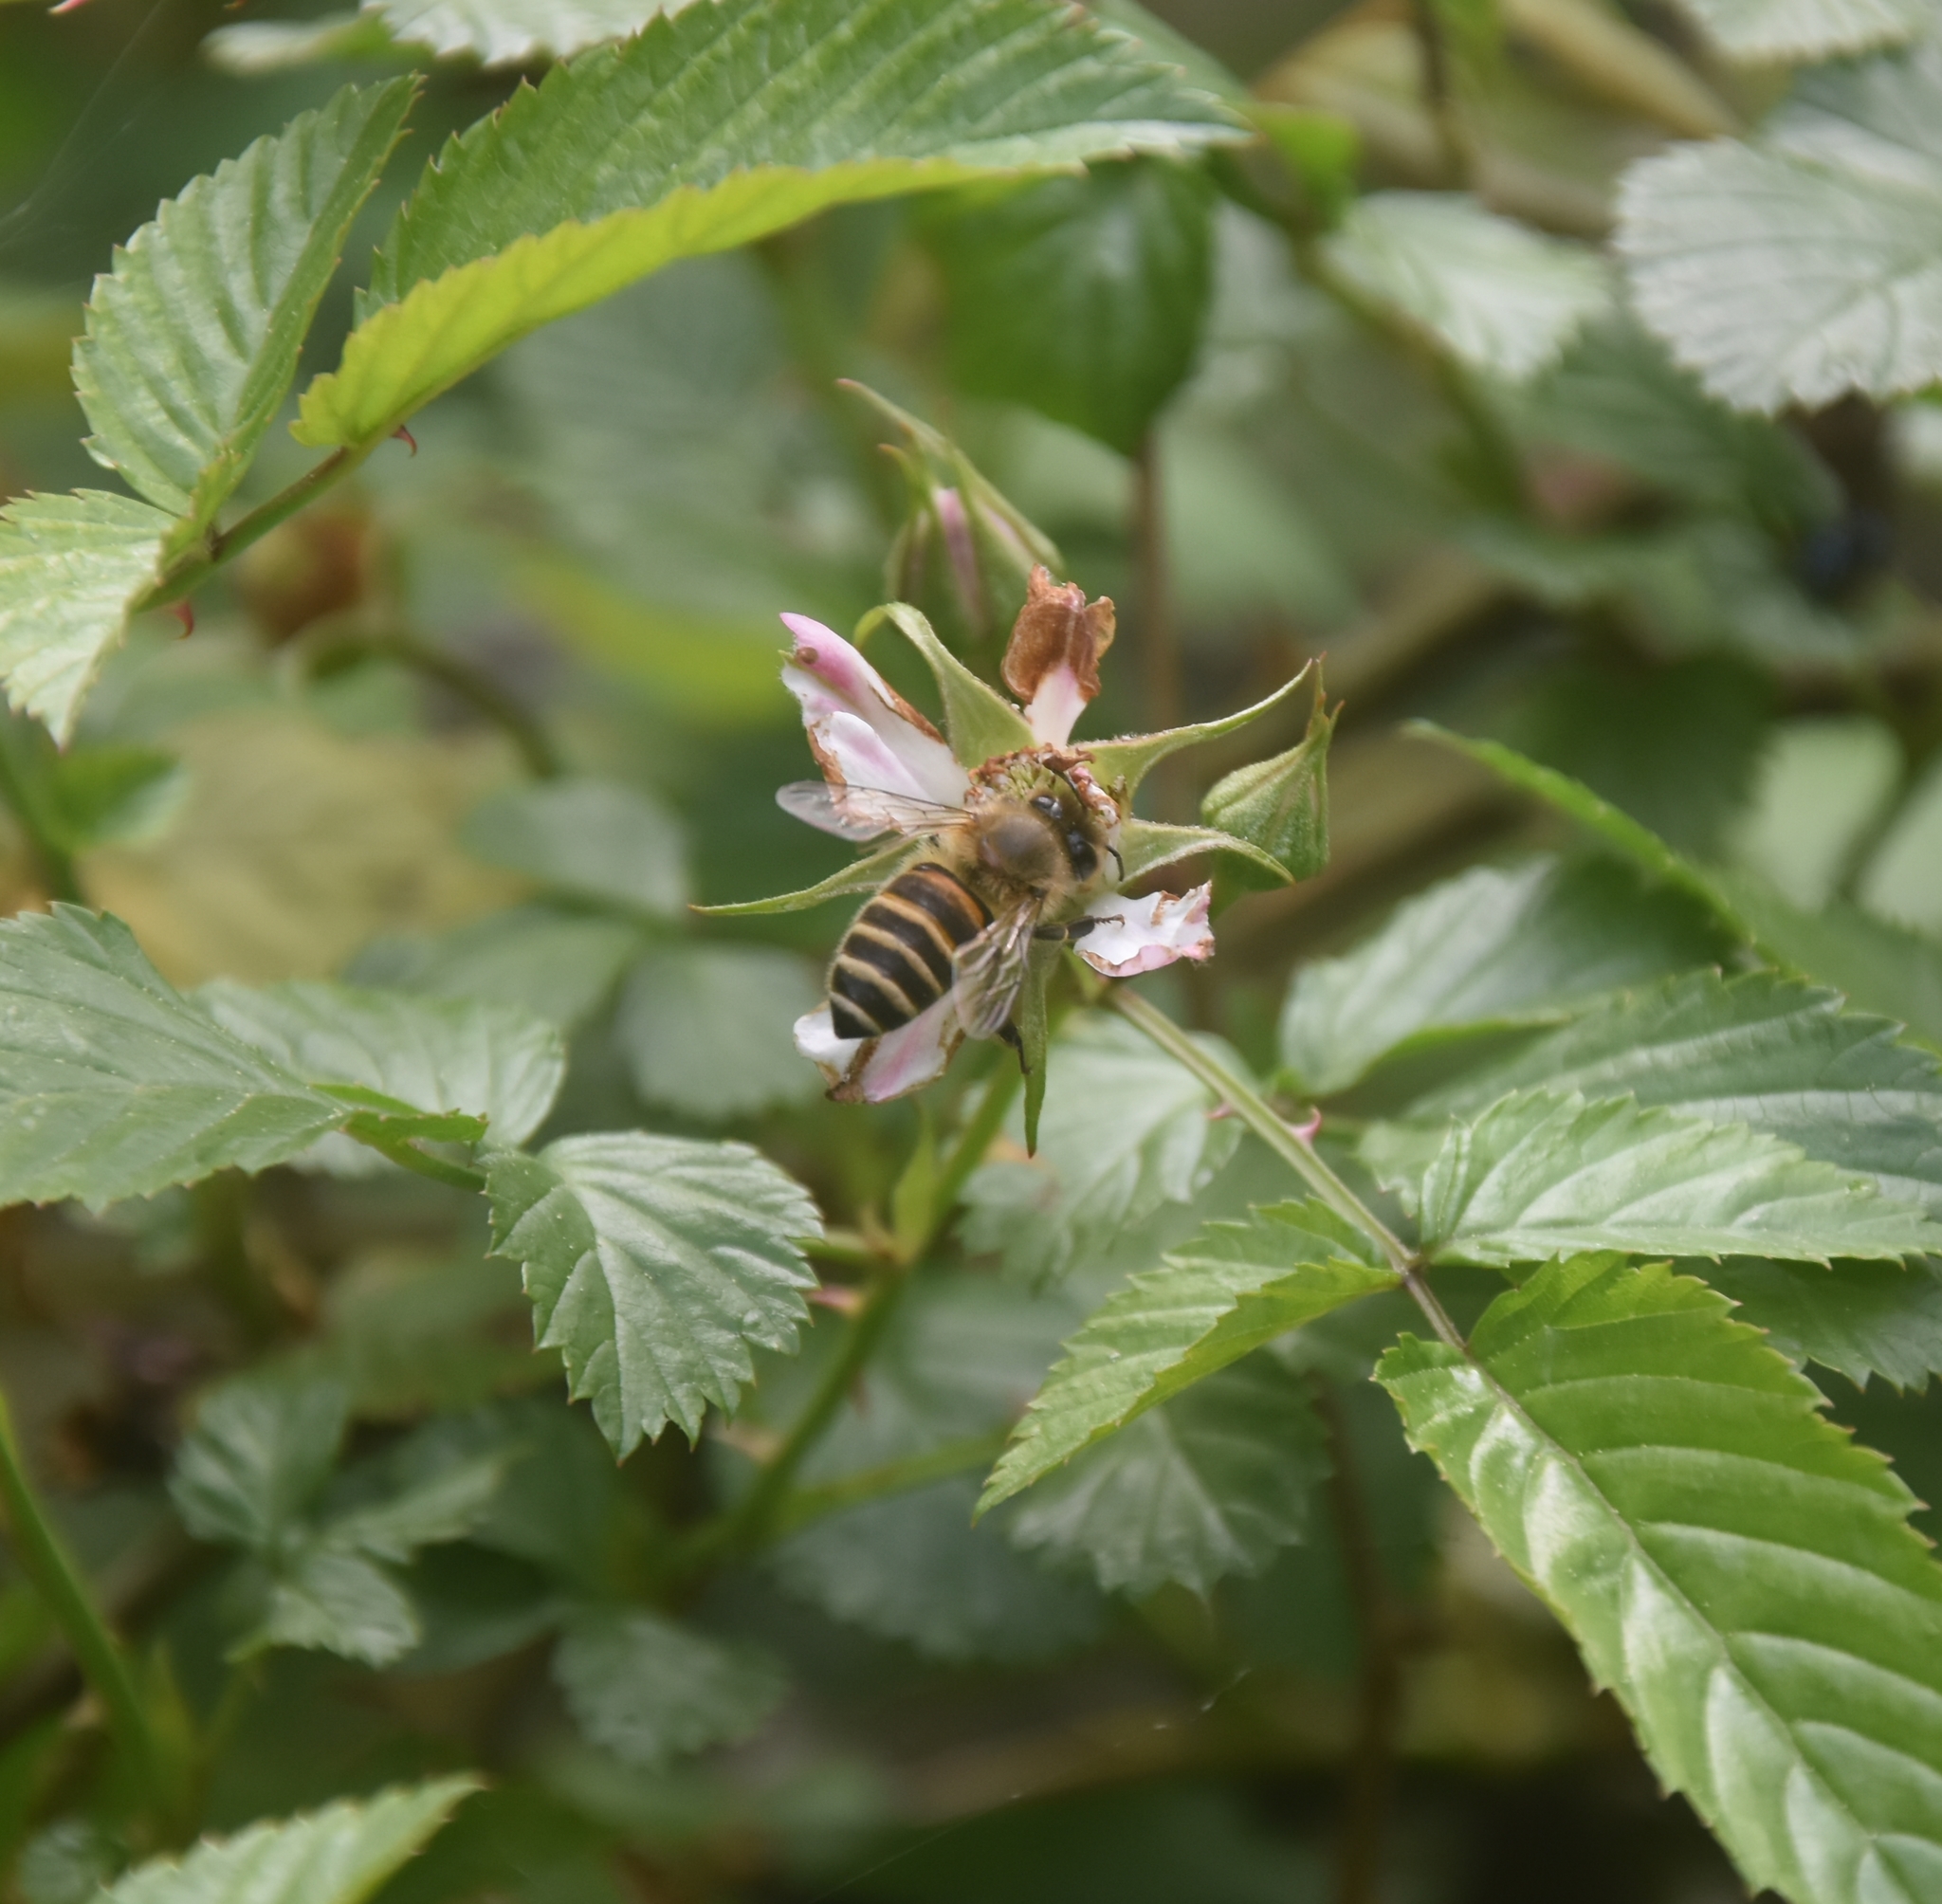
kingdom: Animalia
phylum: Arthropoda
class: Insecta
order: Hymenoptera
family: Apidae
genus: Apis
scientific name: Apis cerana
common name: Honey bee
